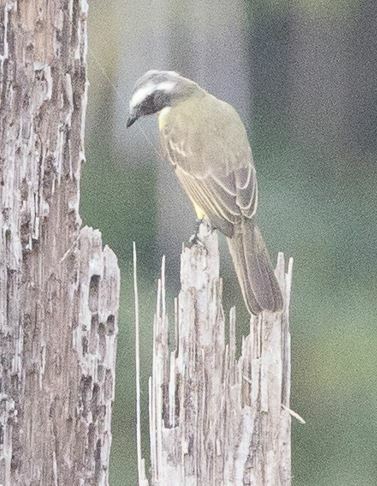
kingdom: Animalia
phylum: Chordata
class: Aves
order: Passeriformes
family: Tyrannidae
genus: Myiozetetes
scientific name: Myiozetetes similis
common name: Social flycatcher
